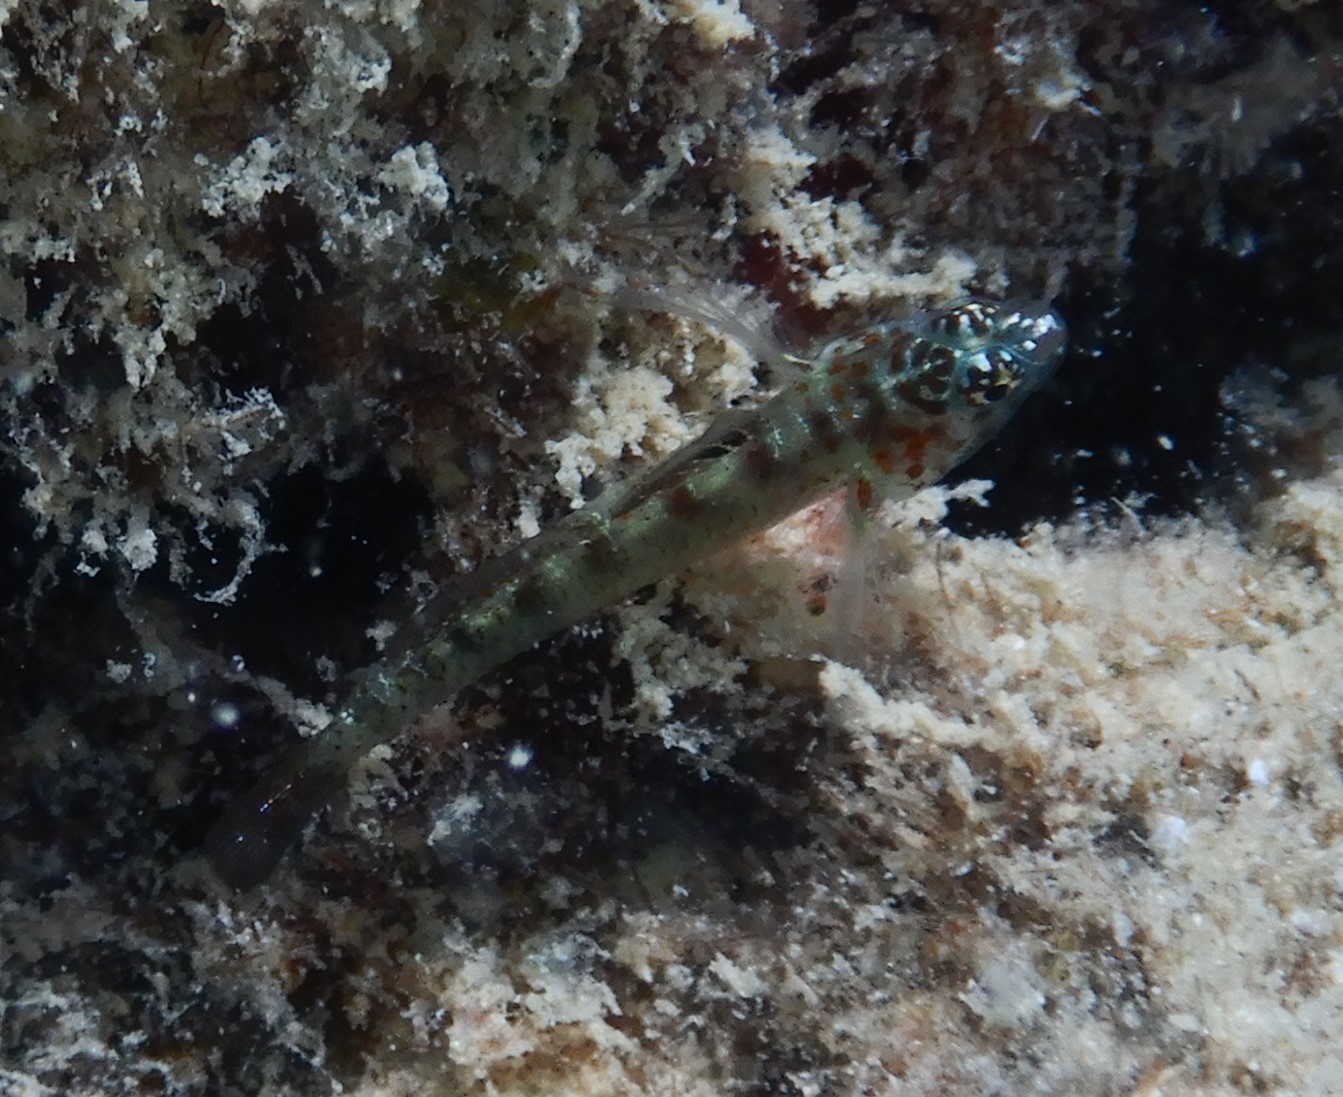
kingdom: Animalia
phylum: Chordata
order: Perciformes
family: Gobiidae
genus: Eviota
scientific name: Eviota prasina
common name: Green bubble goby
